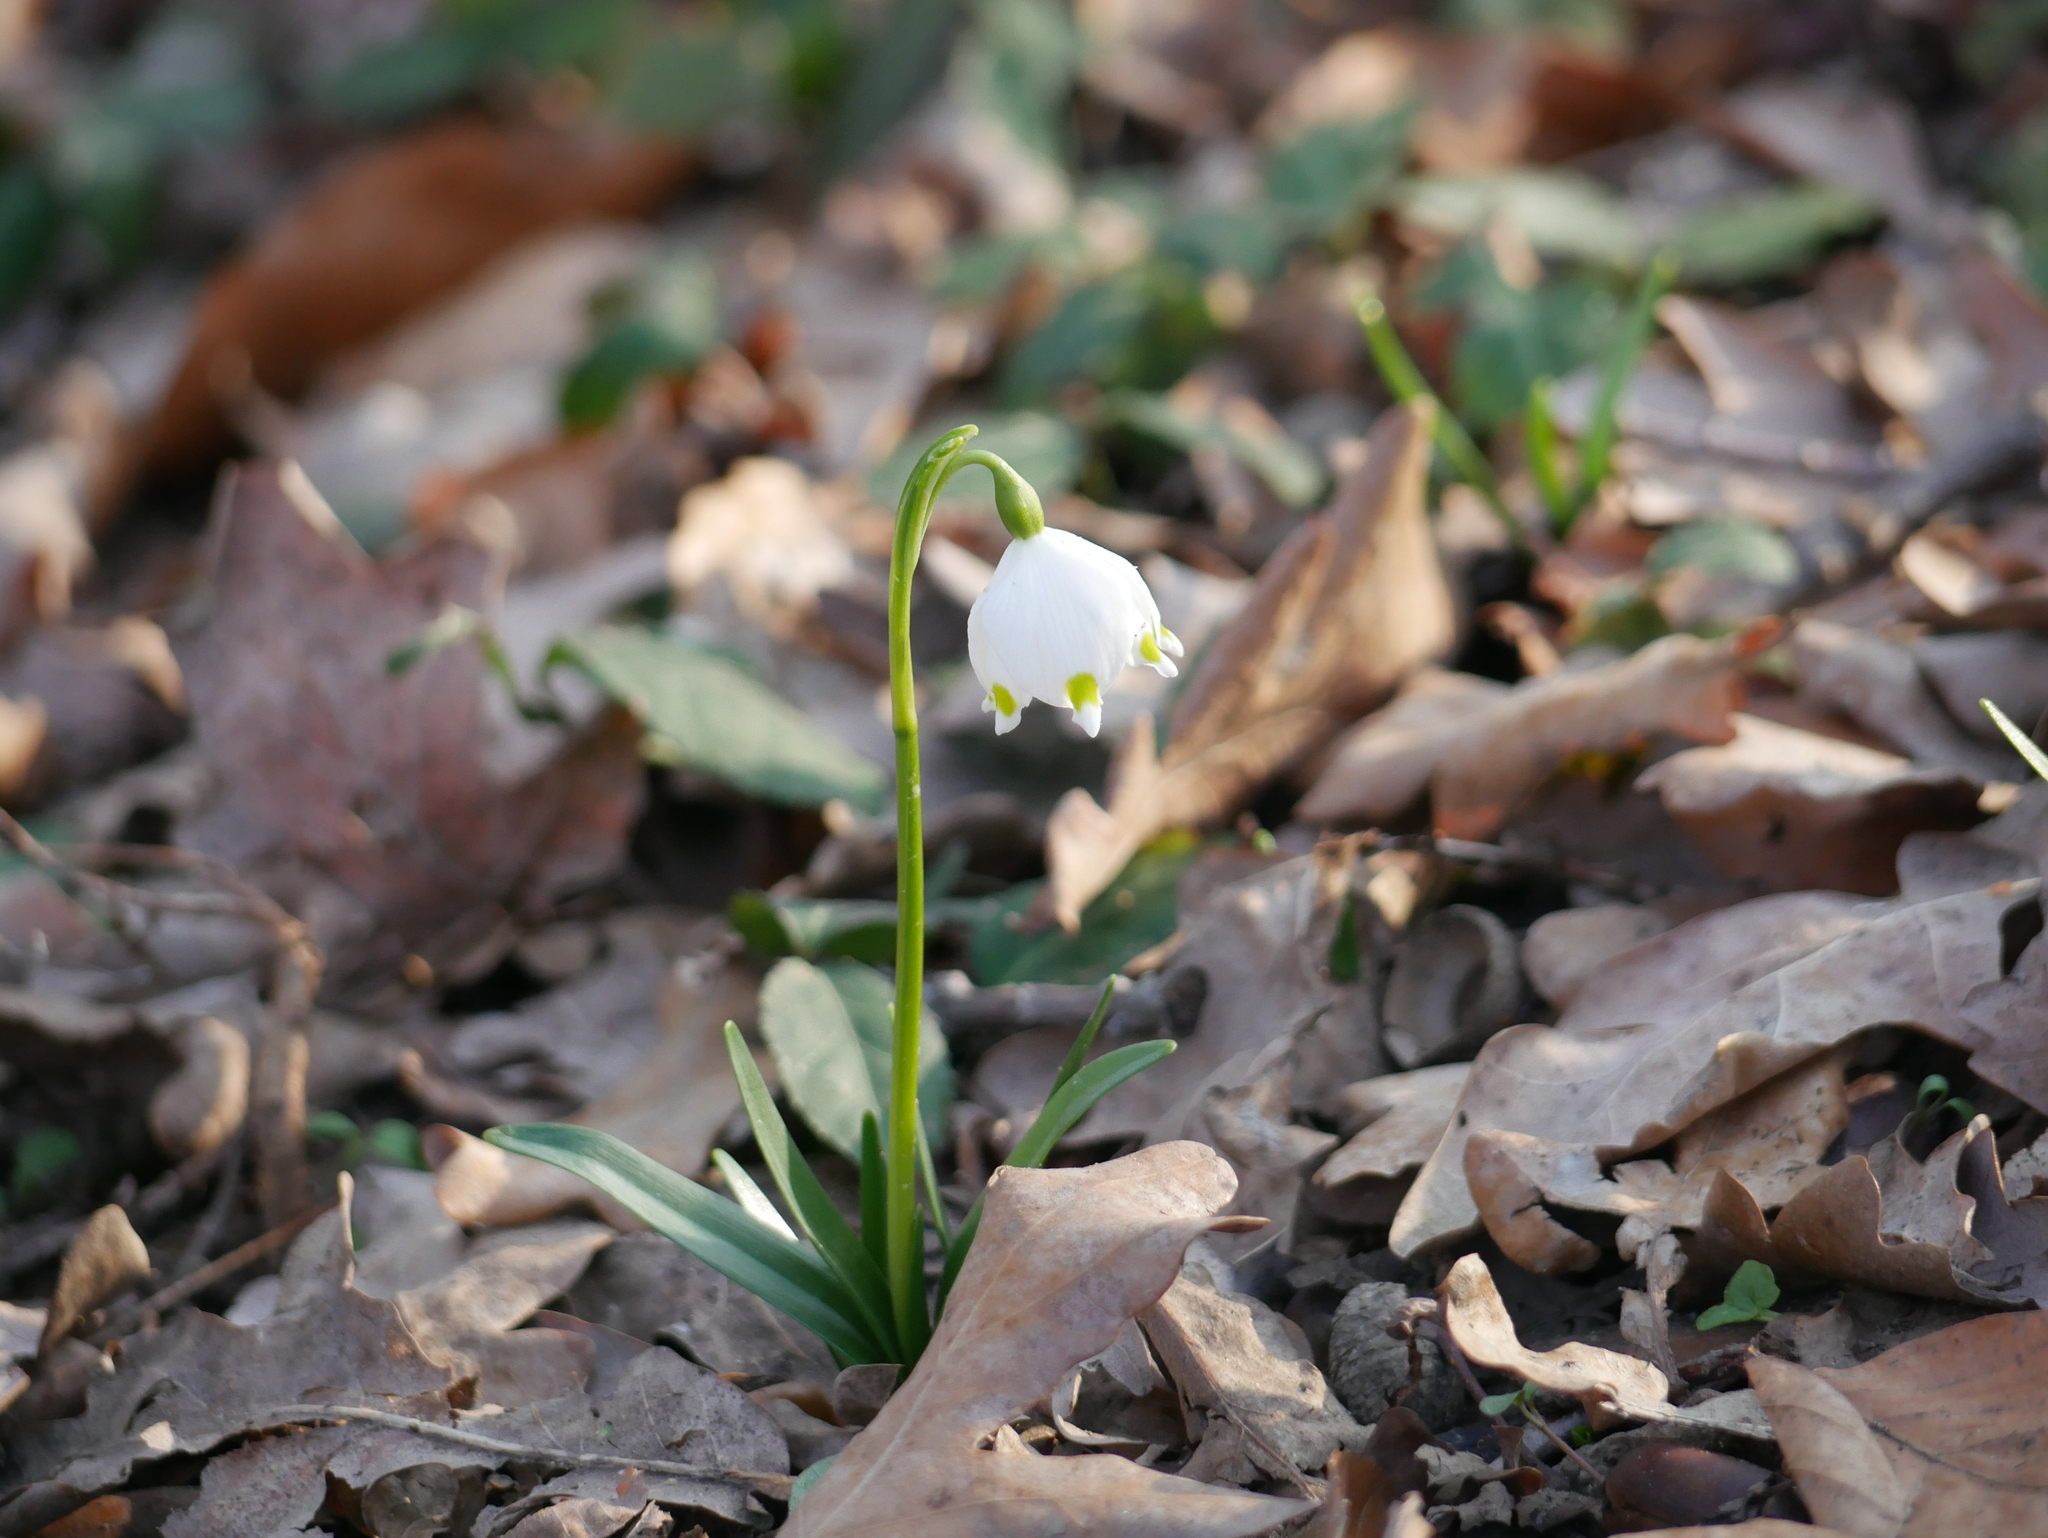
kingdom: Plantae
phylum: Tracheophyta
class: Liliopsida
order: Asparagales
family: Amaryllidaceae
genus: Leucojum
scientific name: Leucojum vernum
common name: Spring snowflake
